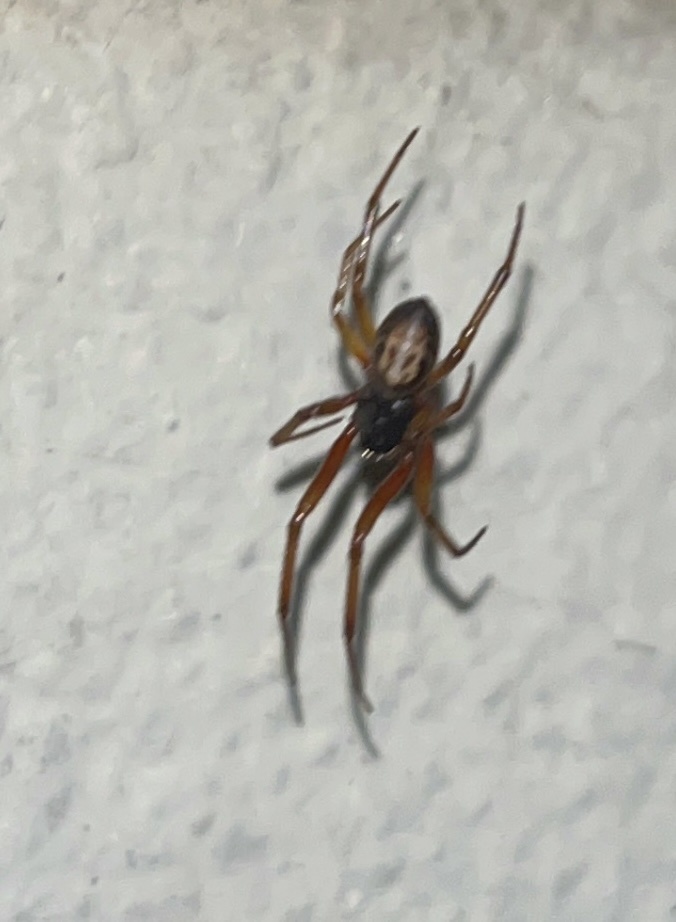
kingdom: Animalia
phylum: Arthropoda
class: Arachnida
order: Araneae
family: Theridiidae
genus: Steatoda
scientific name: Steatoda nobilis
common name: Cobweb weaver
